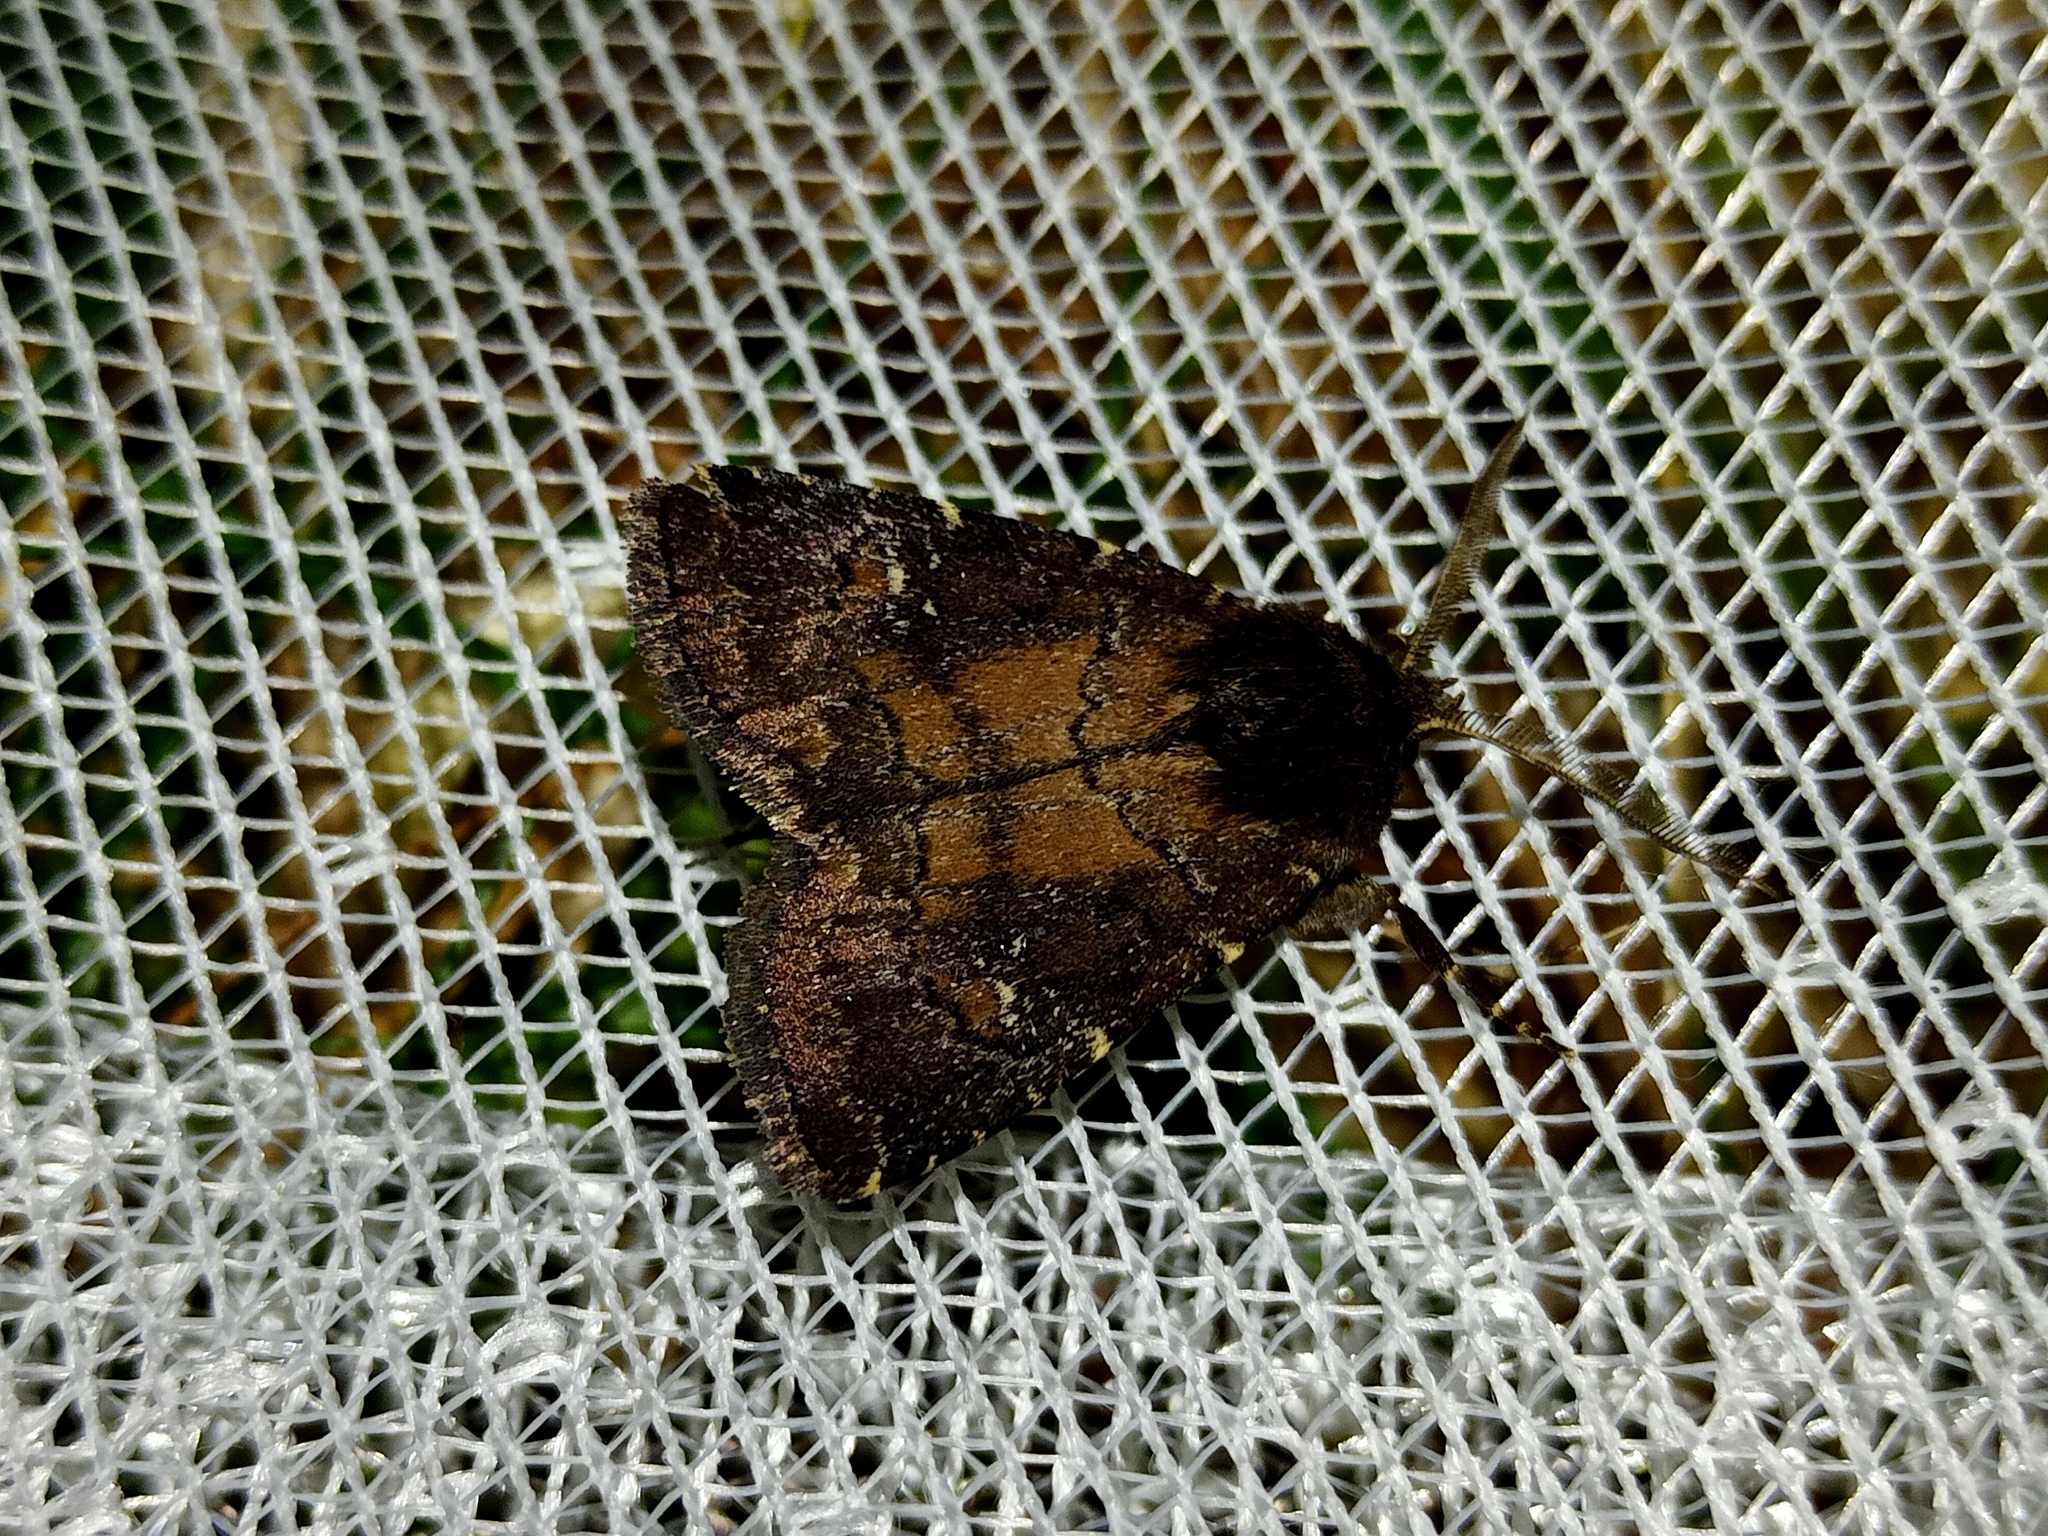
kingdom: Animalia
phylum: Arthropoda
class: Insecta
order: Lepidoptera
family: Noctuidae
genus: Charanyca
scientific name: Charanyca ferruginea
